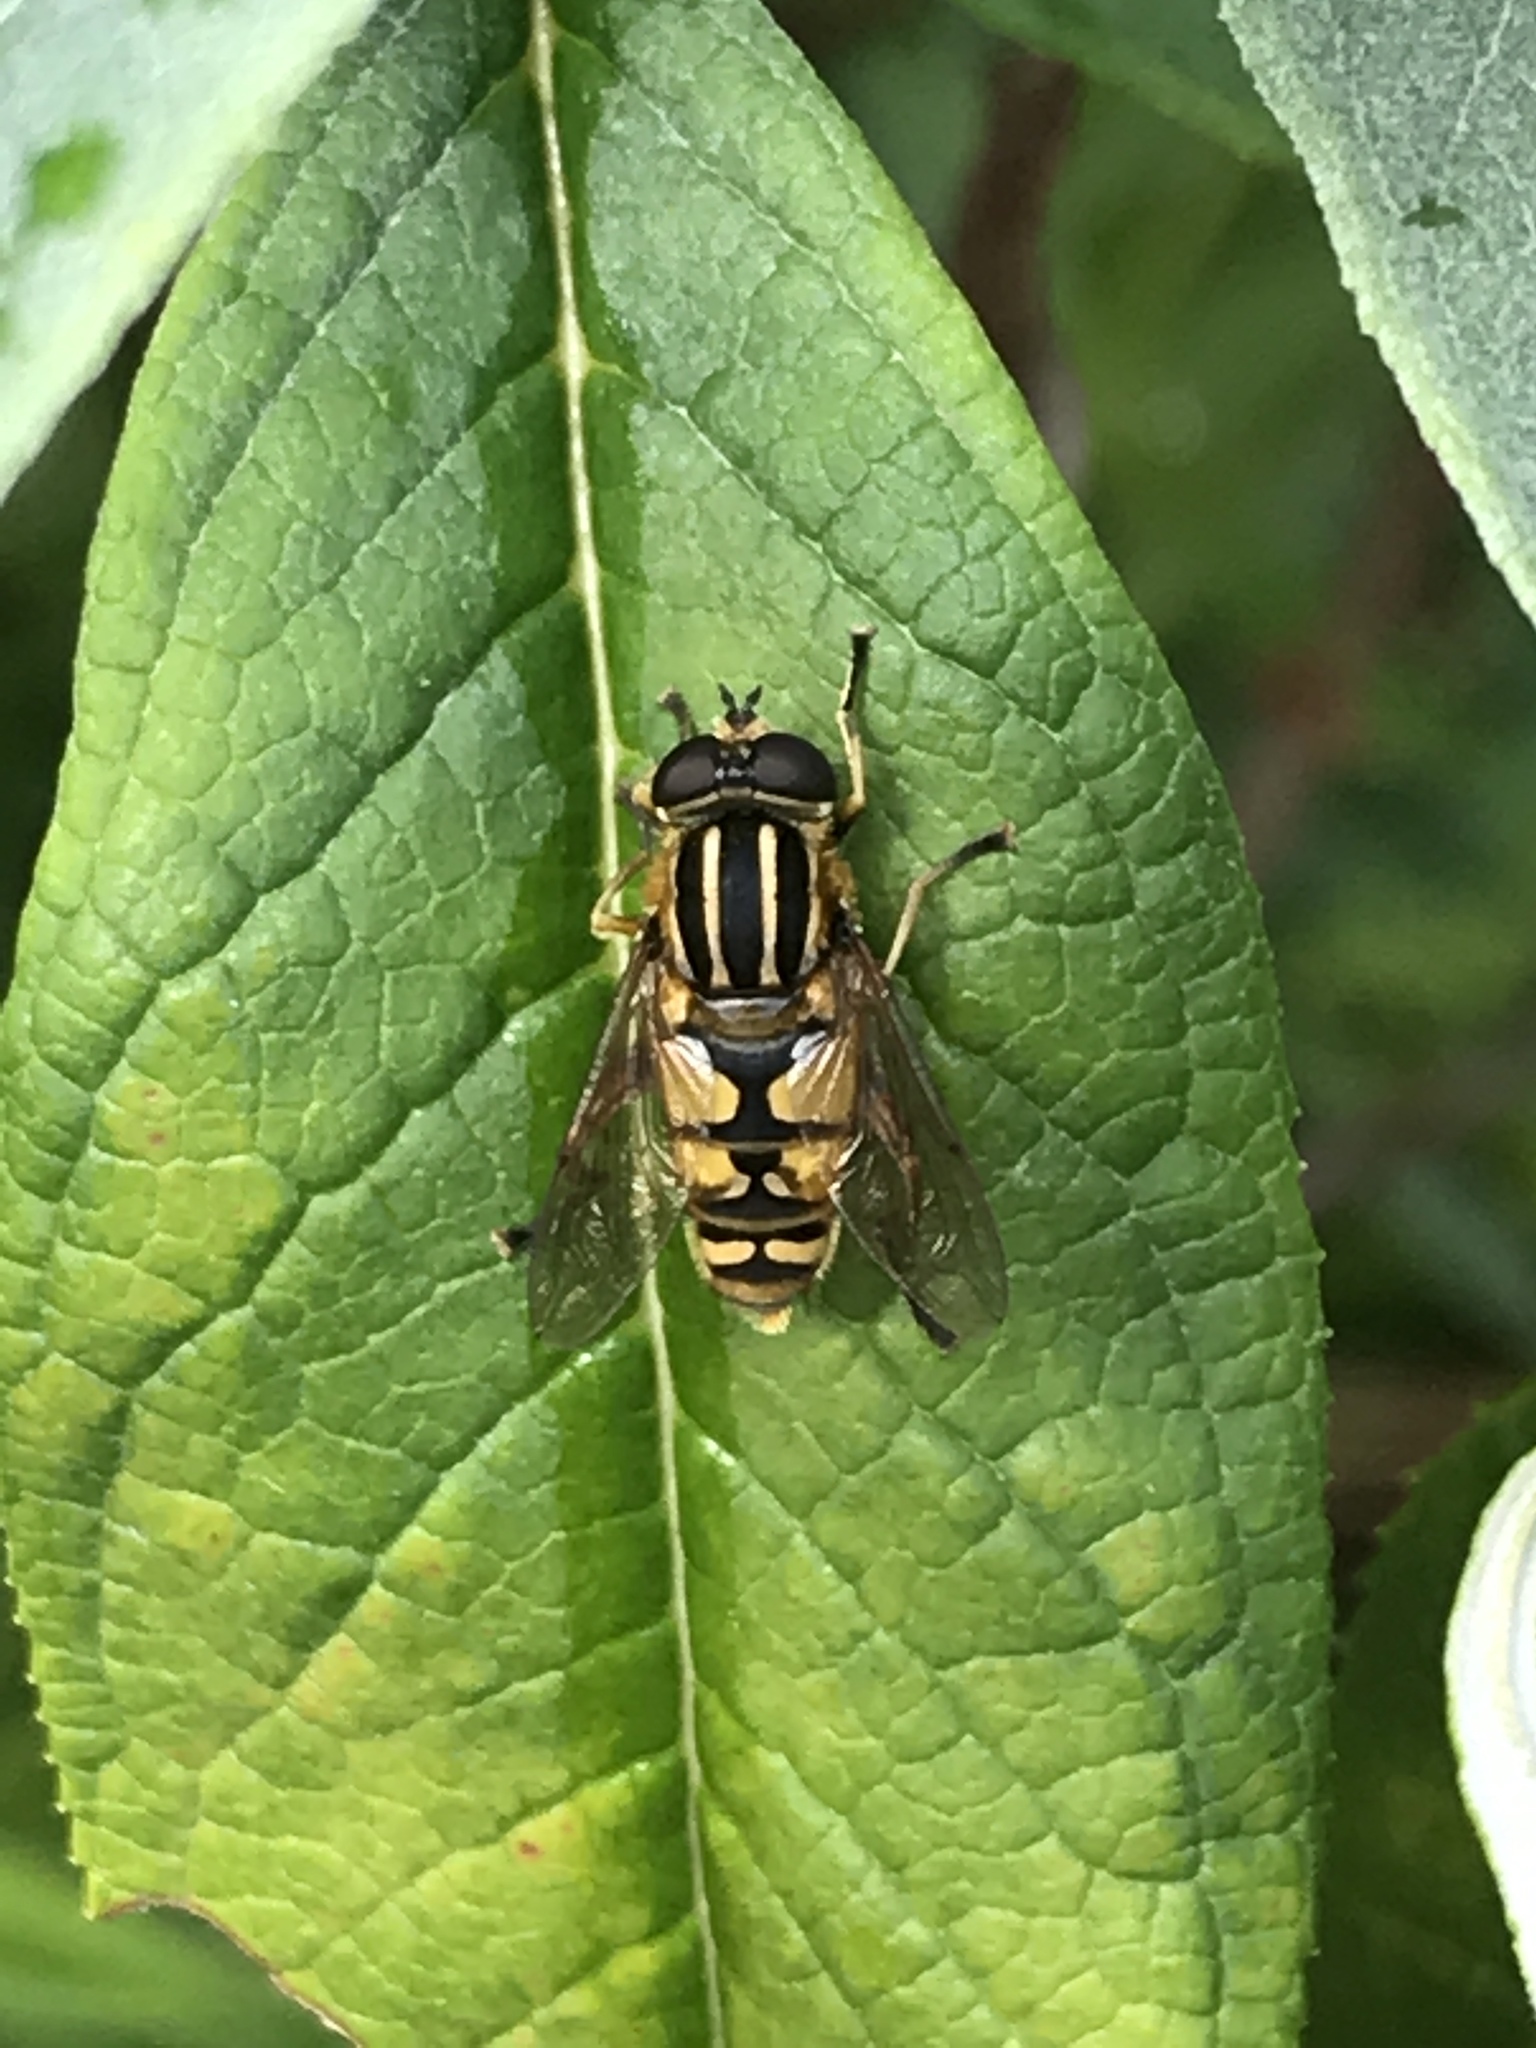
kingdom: Animalia
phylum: Arthropoda
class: Insecta
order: Diptera
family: Syrphidae
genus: Helophilus
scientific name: Helophilus pendulus
